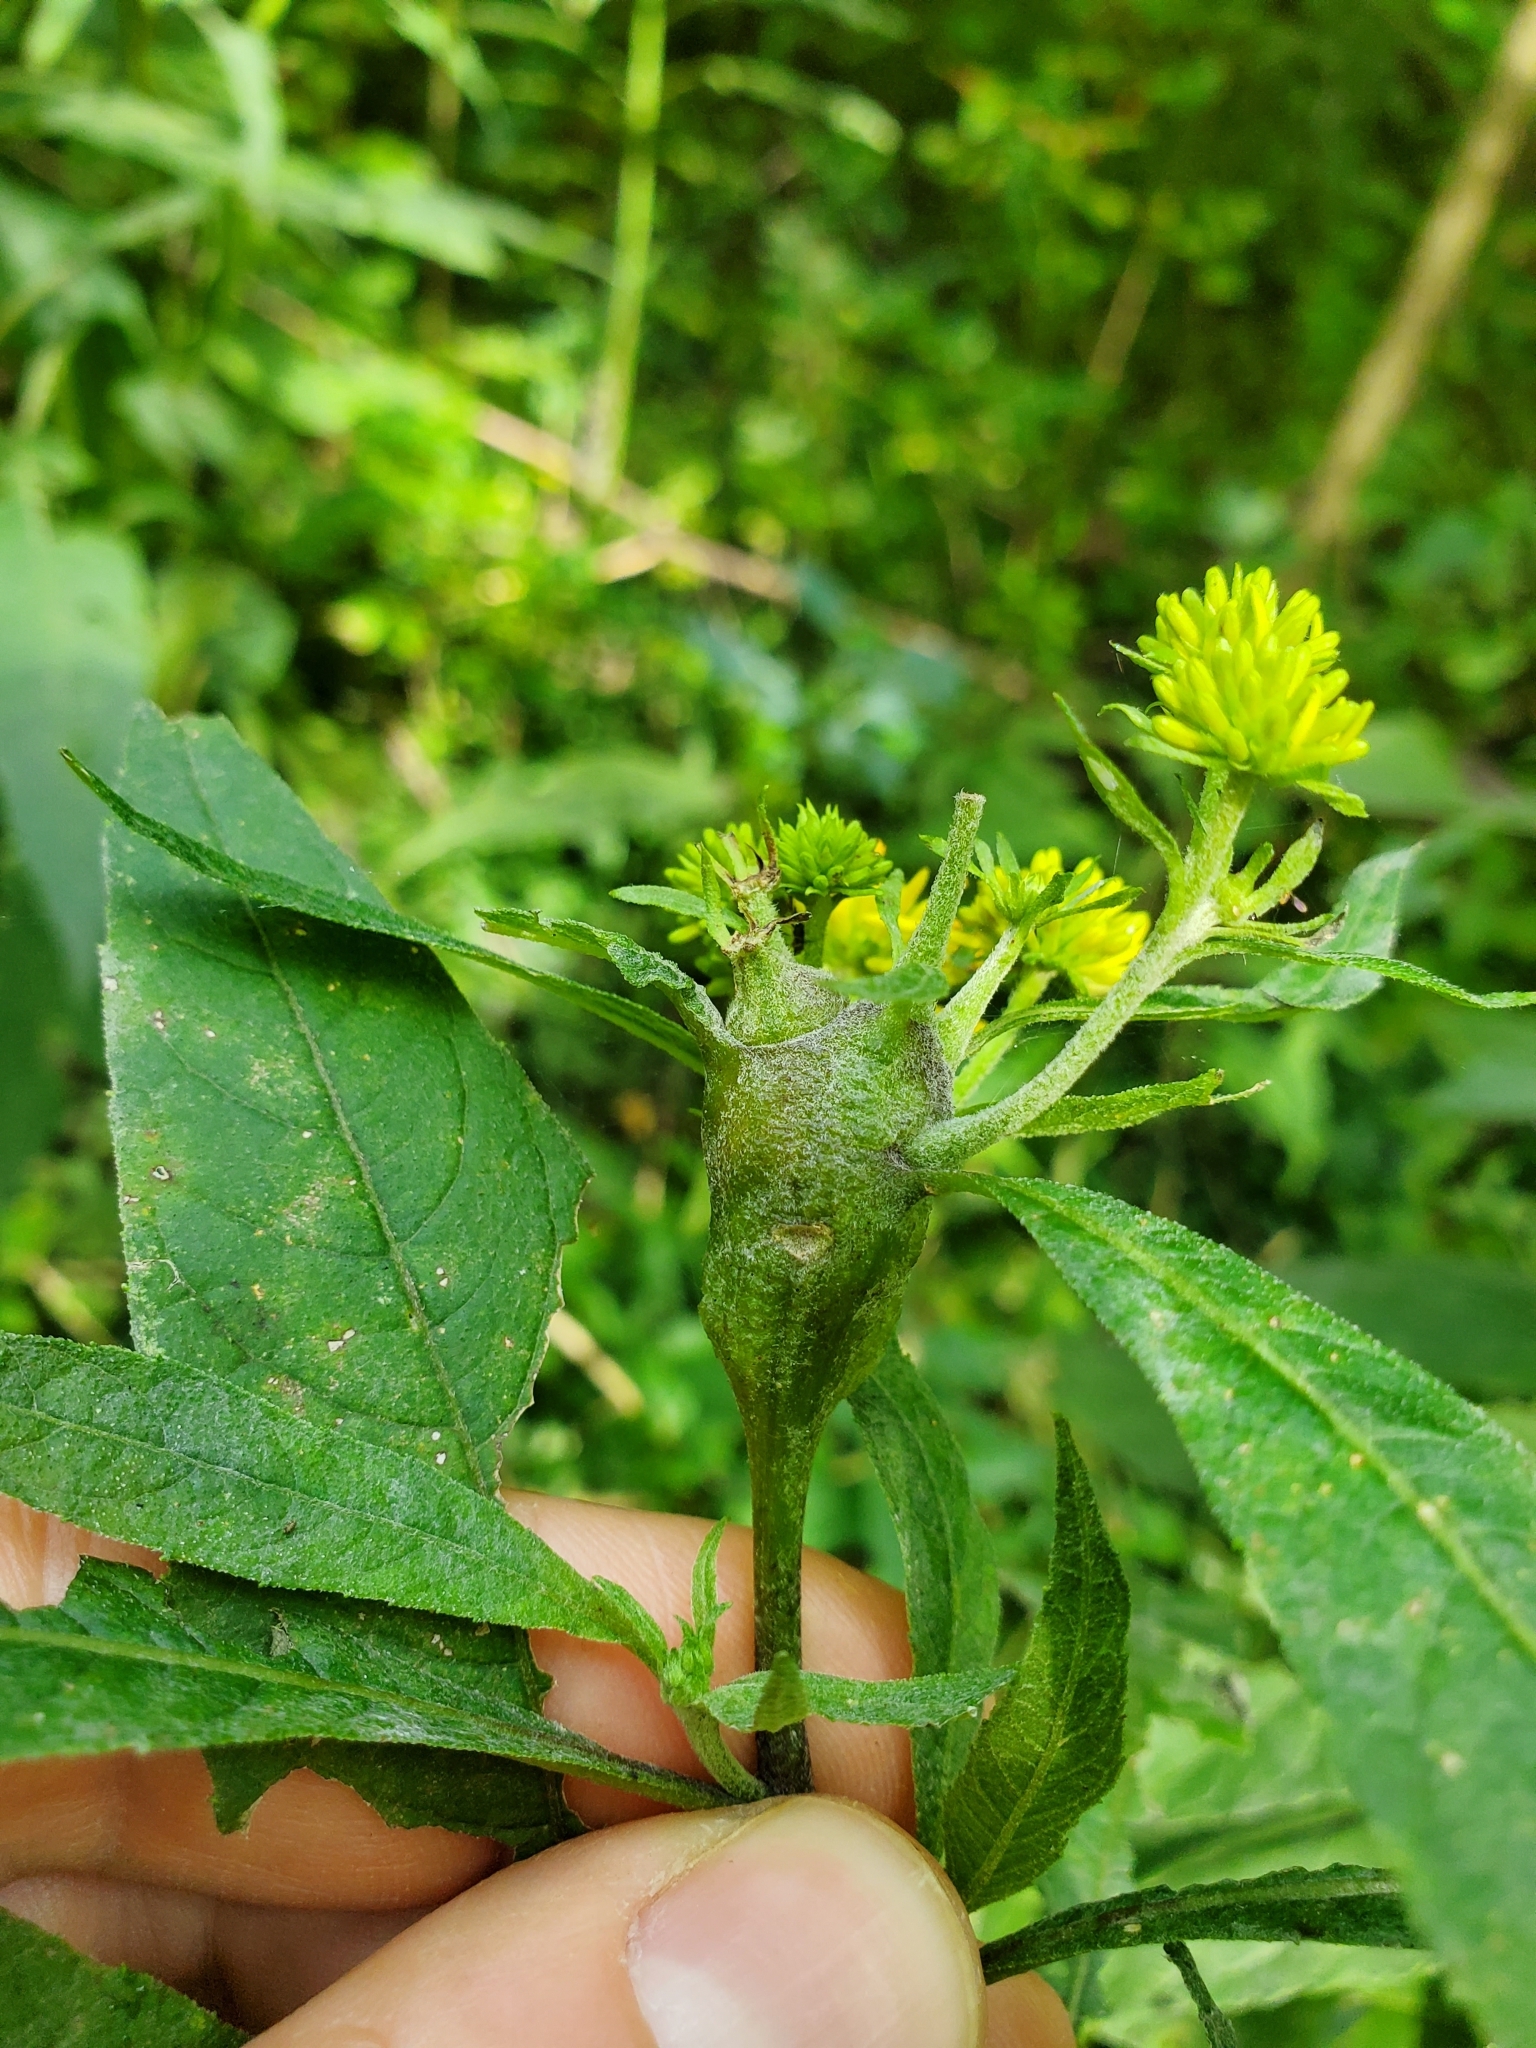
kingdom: Animalia
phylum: Arthropoda
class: Insecta
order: Diptera
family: Cecidomyiidae
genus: Neolasioptera
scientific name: Neolasioptera verbesinae
